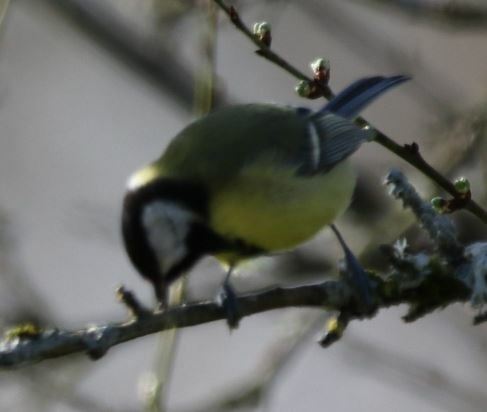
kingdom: Animalia
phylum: Chordata
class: Aves
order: Passeriformes
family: Paridae
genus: Parus
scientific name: Parus major
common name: Great tit
